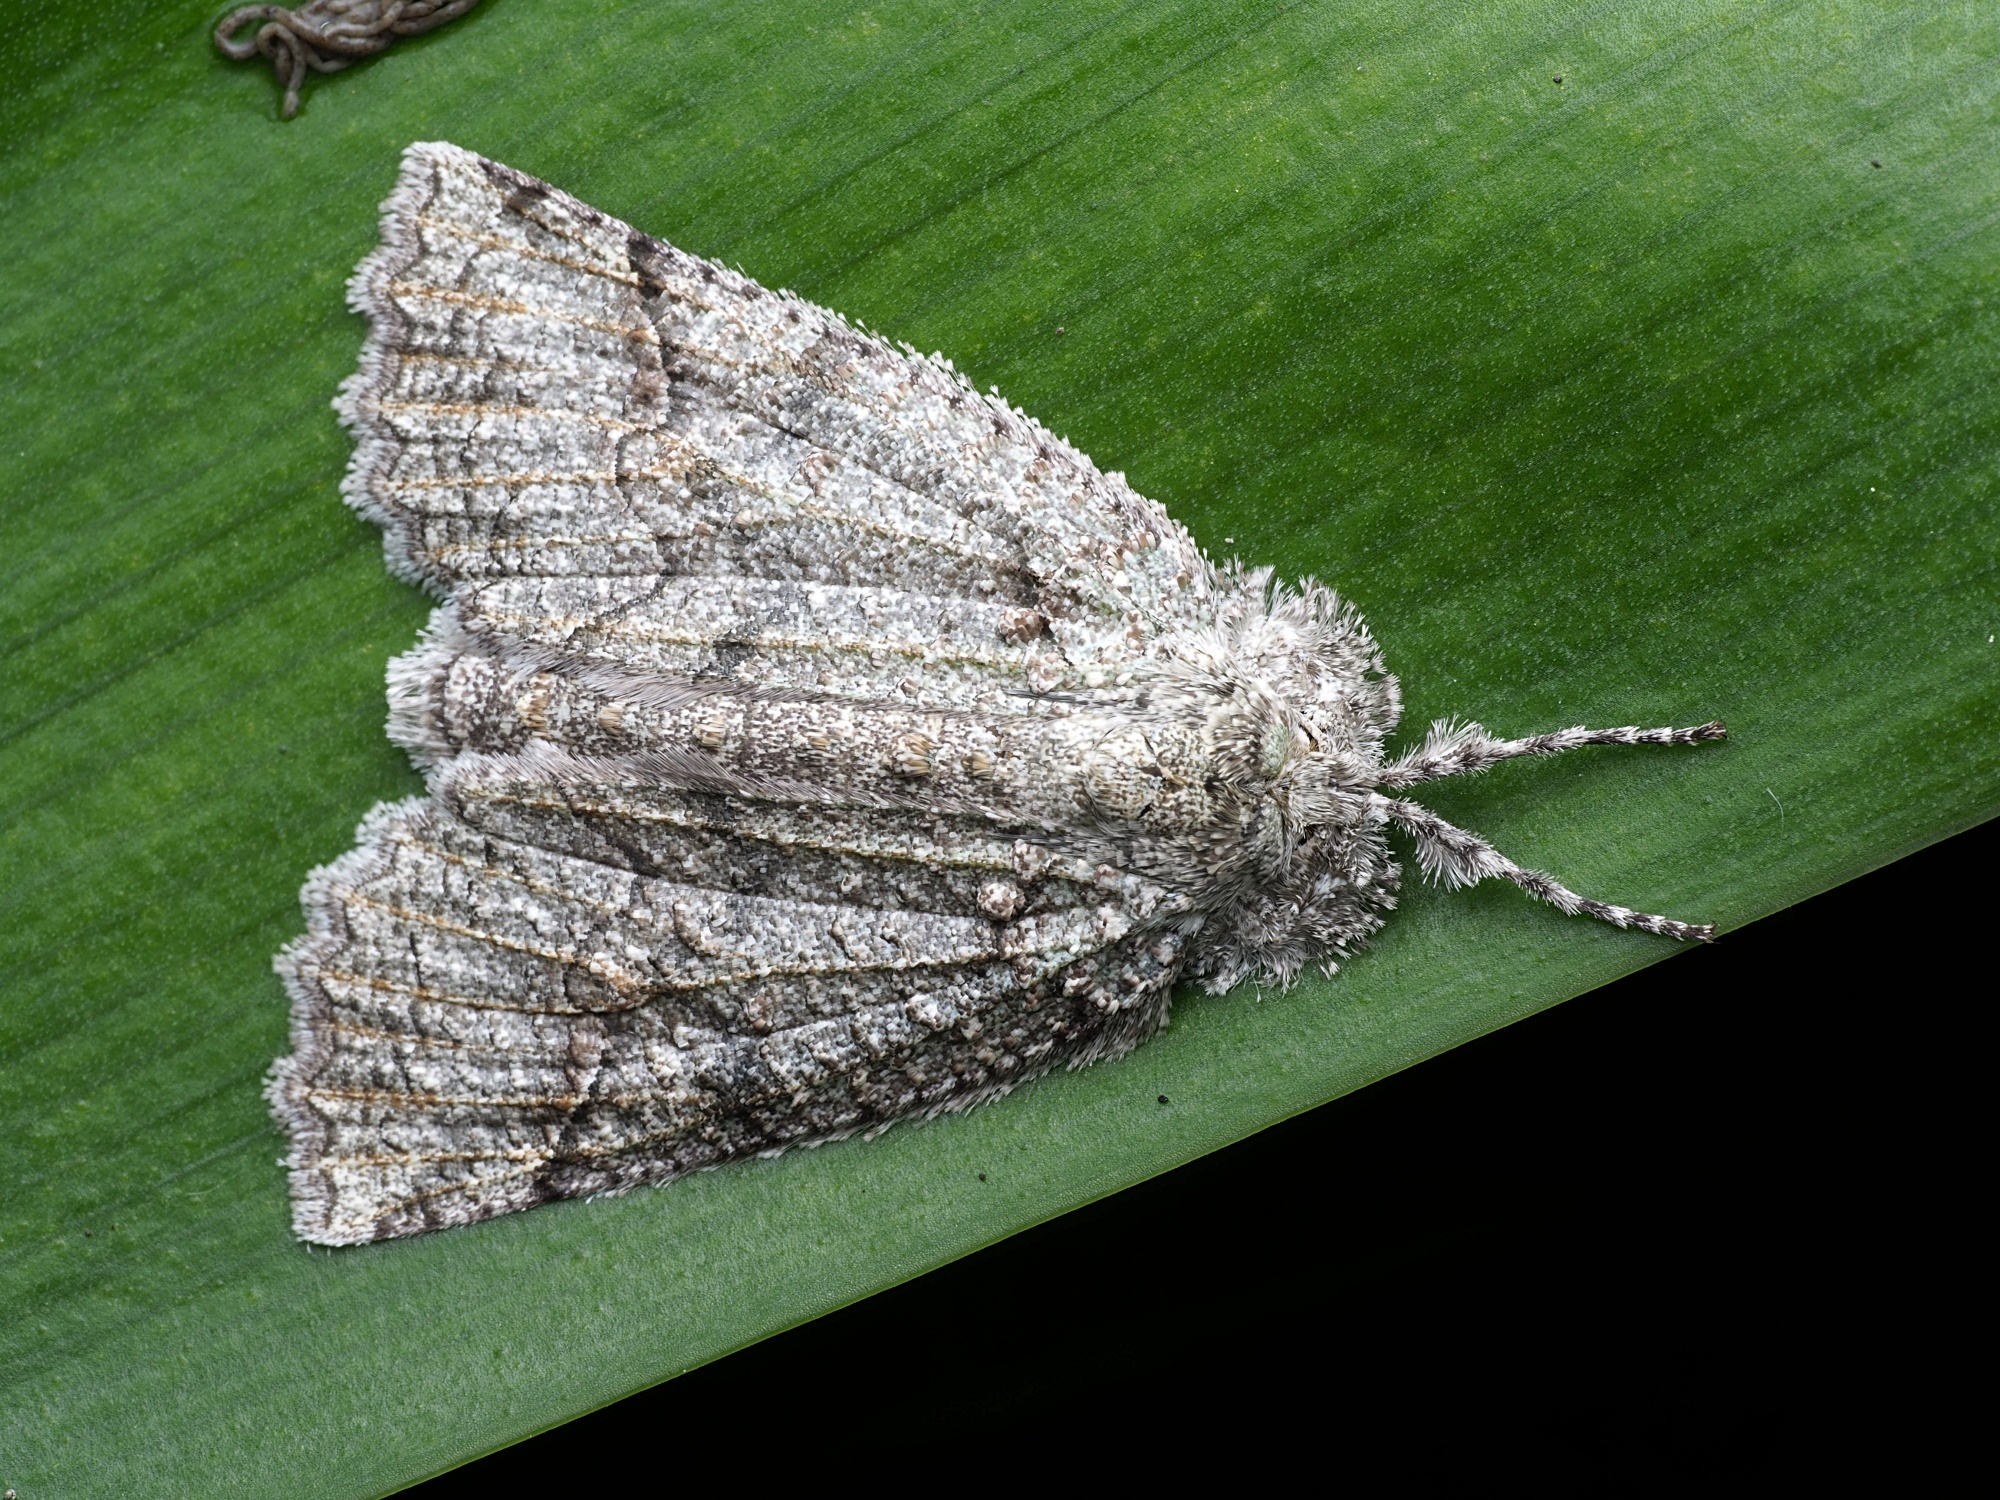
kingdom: Animalia
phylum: Arthropoda
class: Insecta
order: Lepidoptera
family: Geometridae
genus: Declana
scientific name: Declana floccosa
